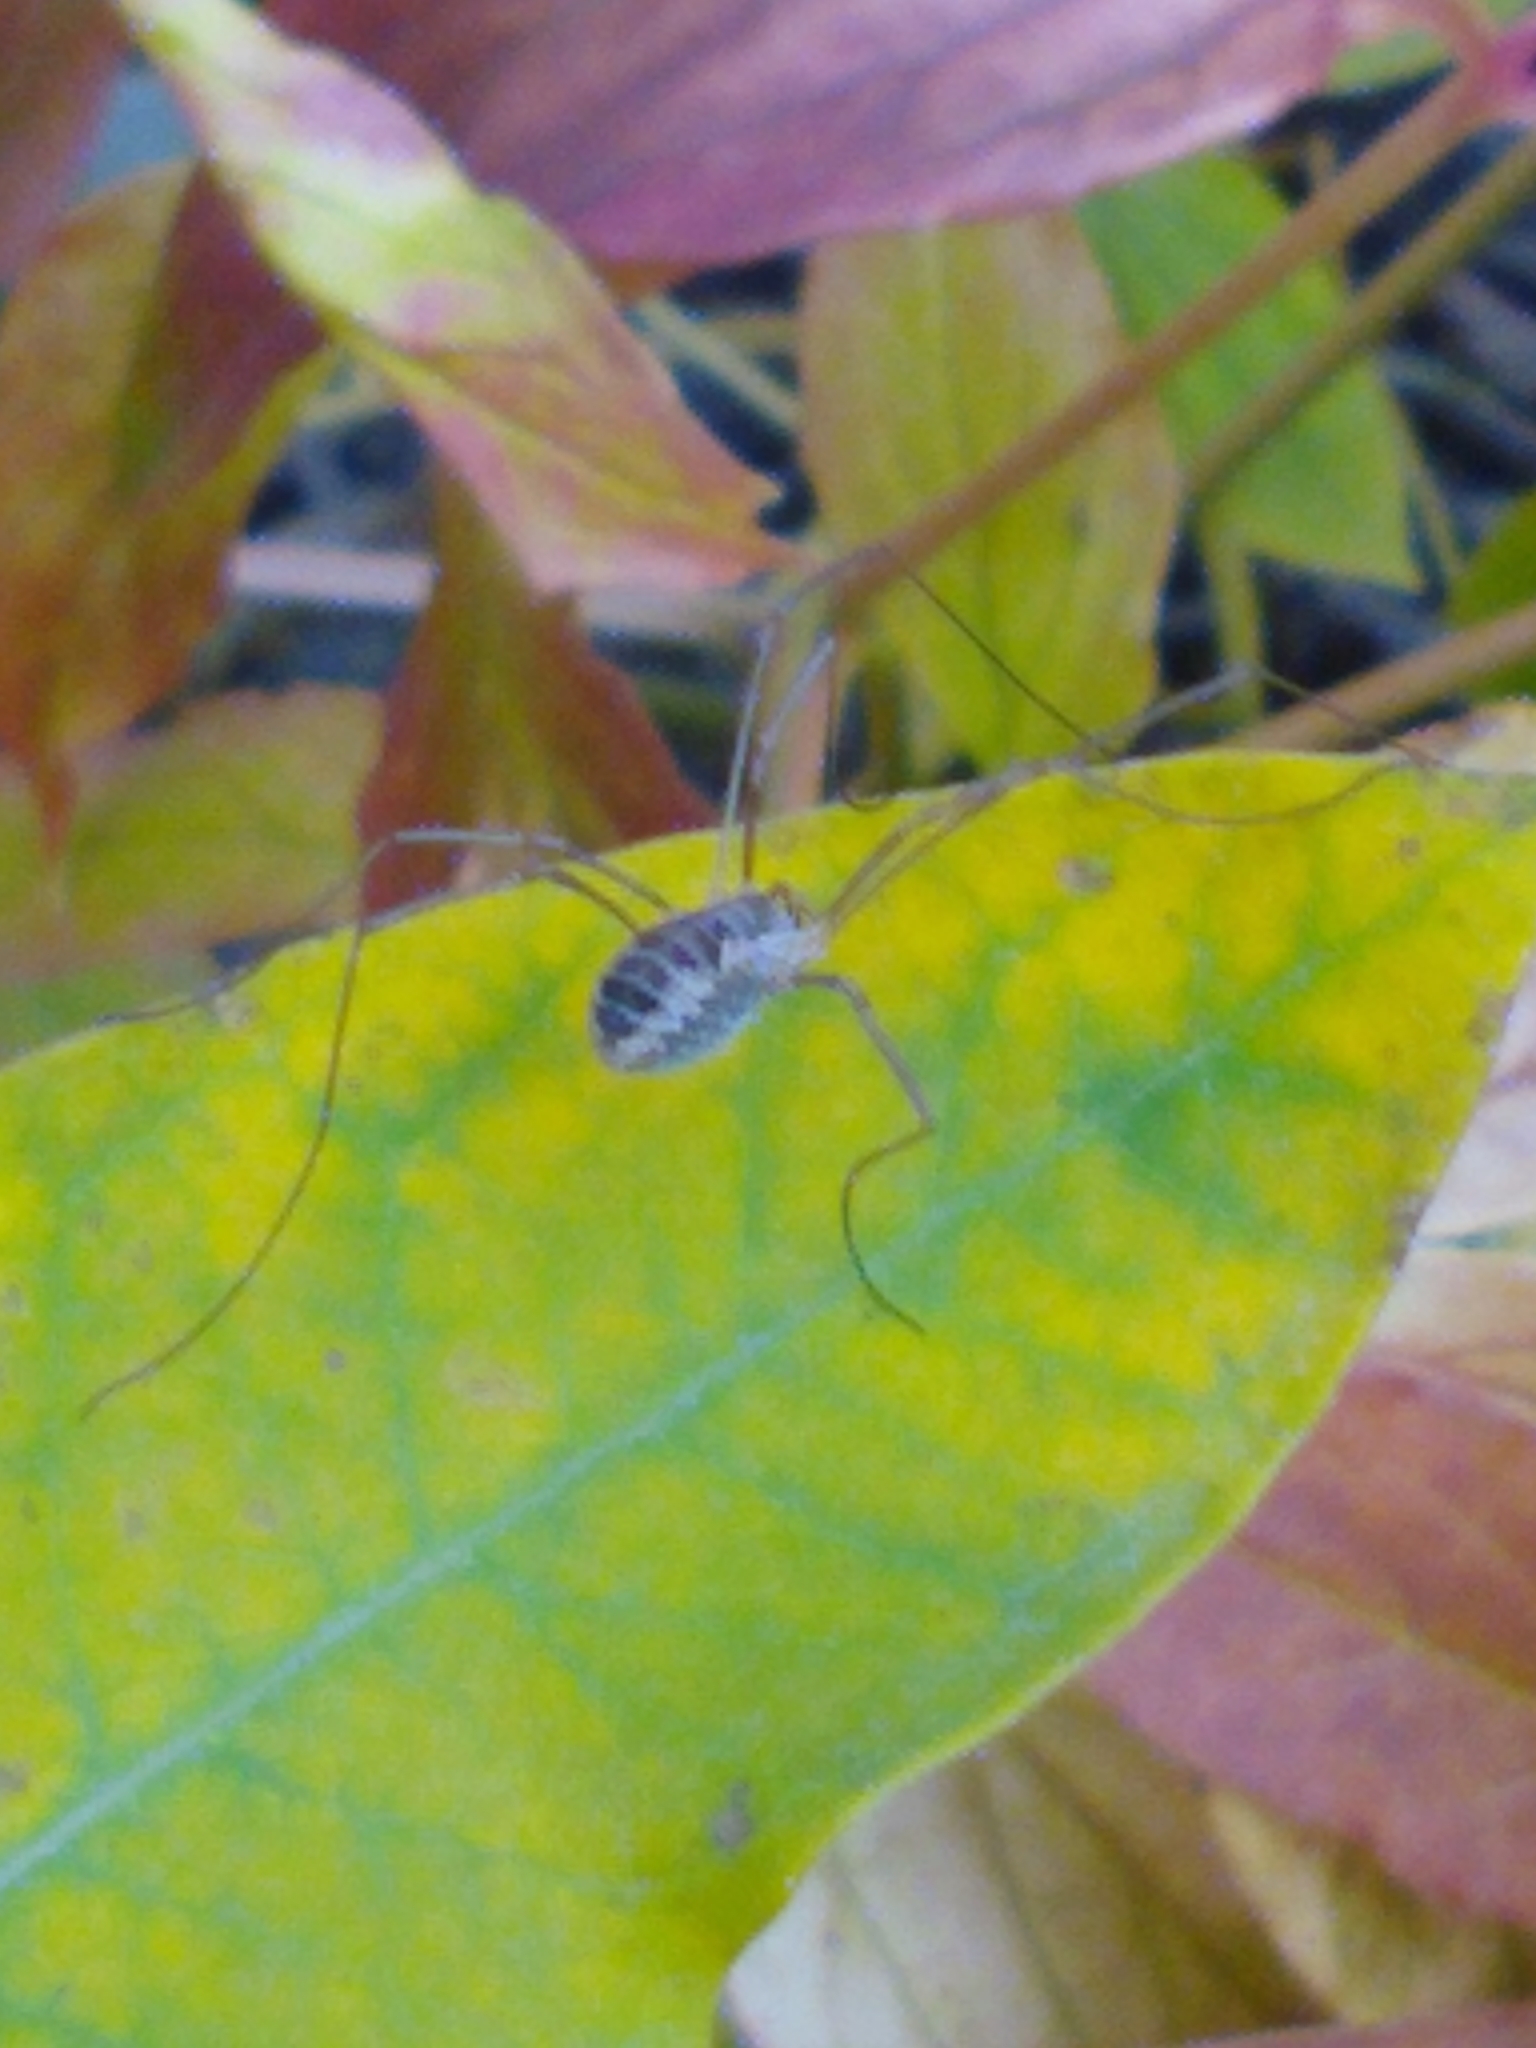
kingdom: Animalia
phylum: Arthropoda
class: Arachnida
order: Opiliones
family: Phalangiidae
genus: Phalangium
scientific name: Phalangium opilio
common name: Daddy longleg
